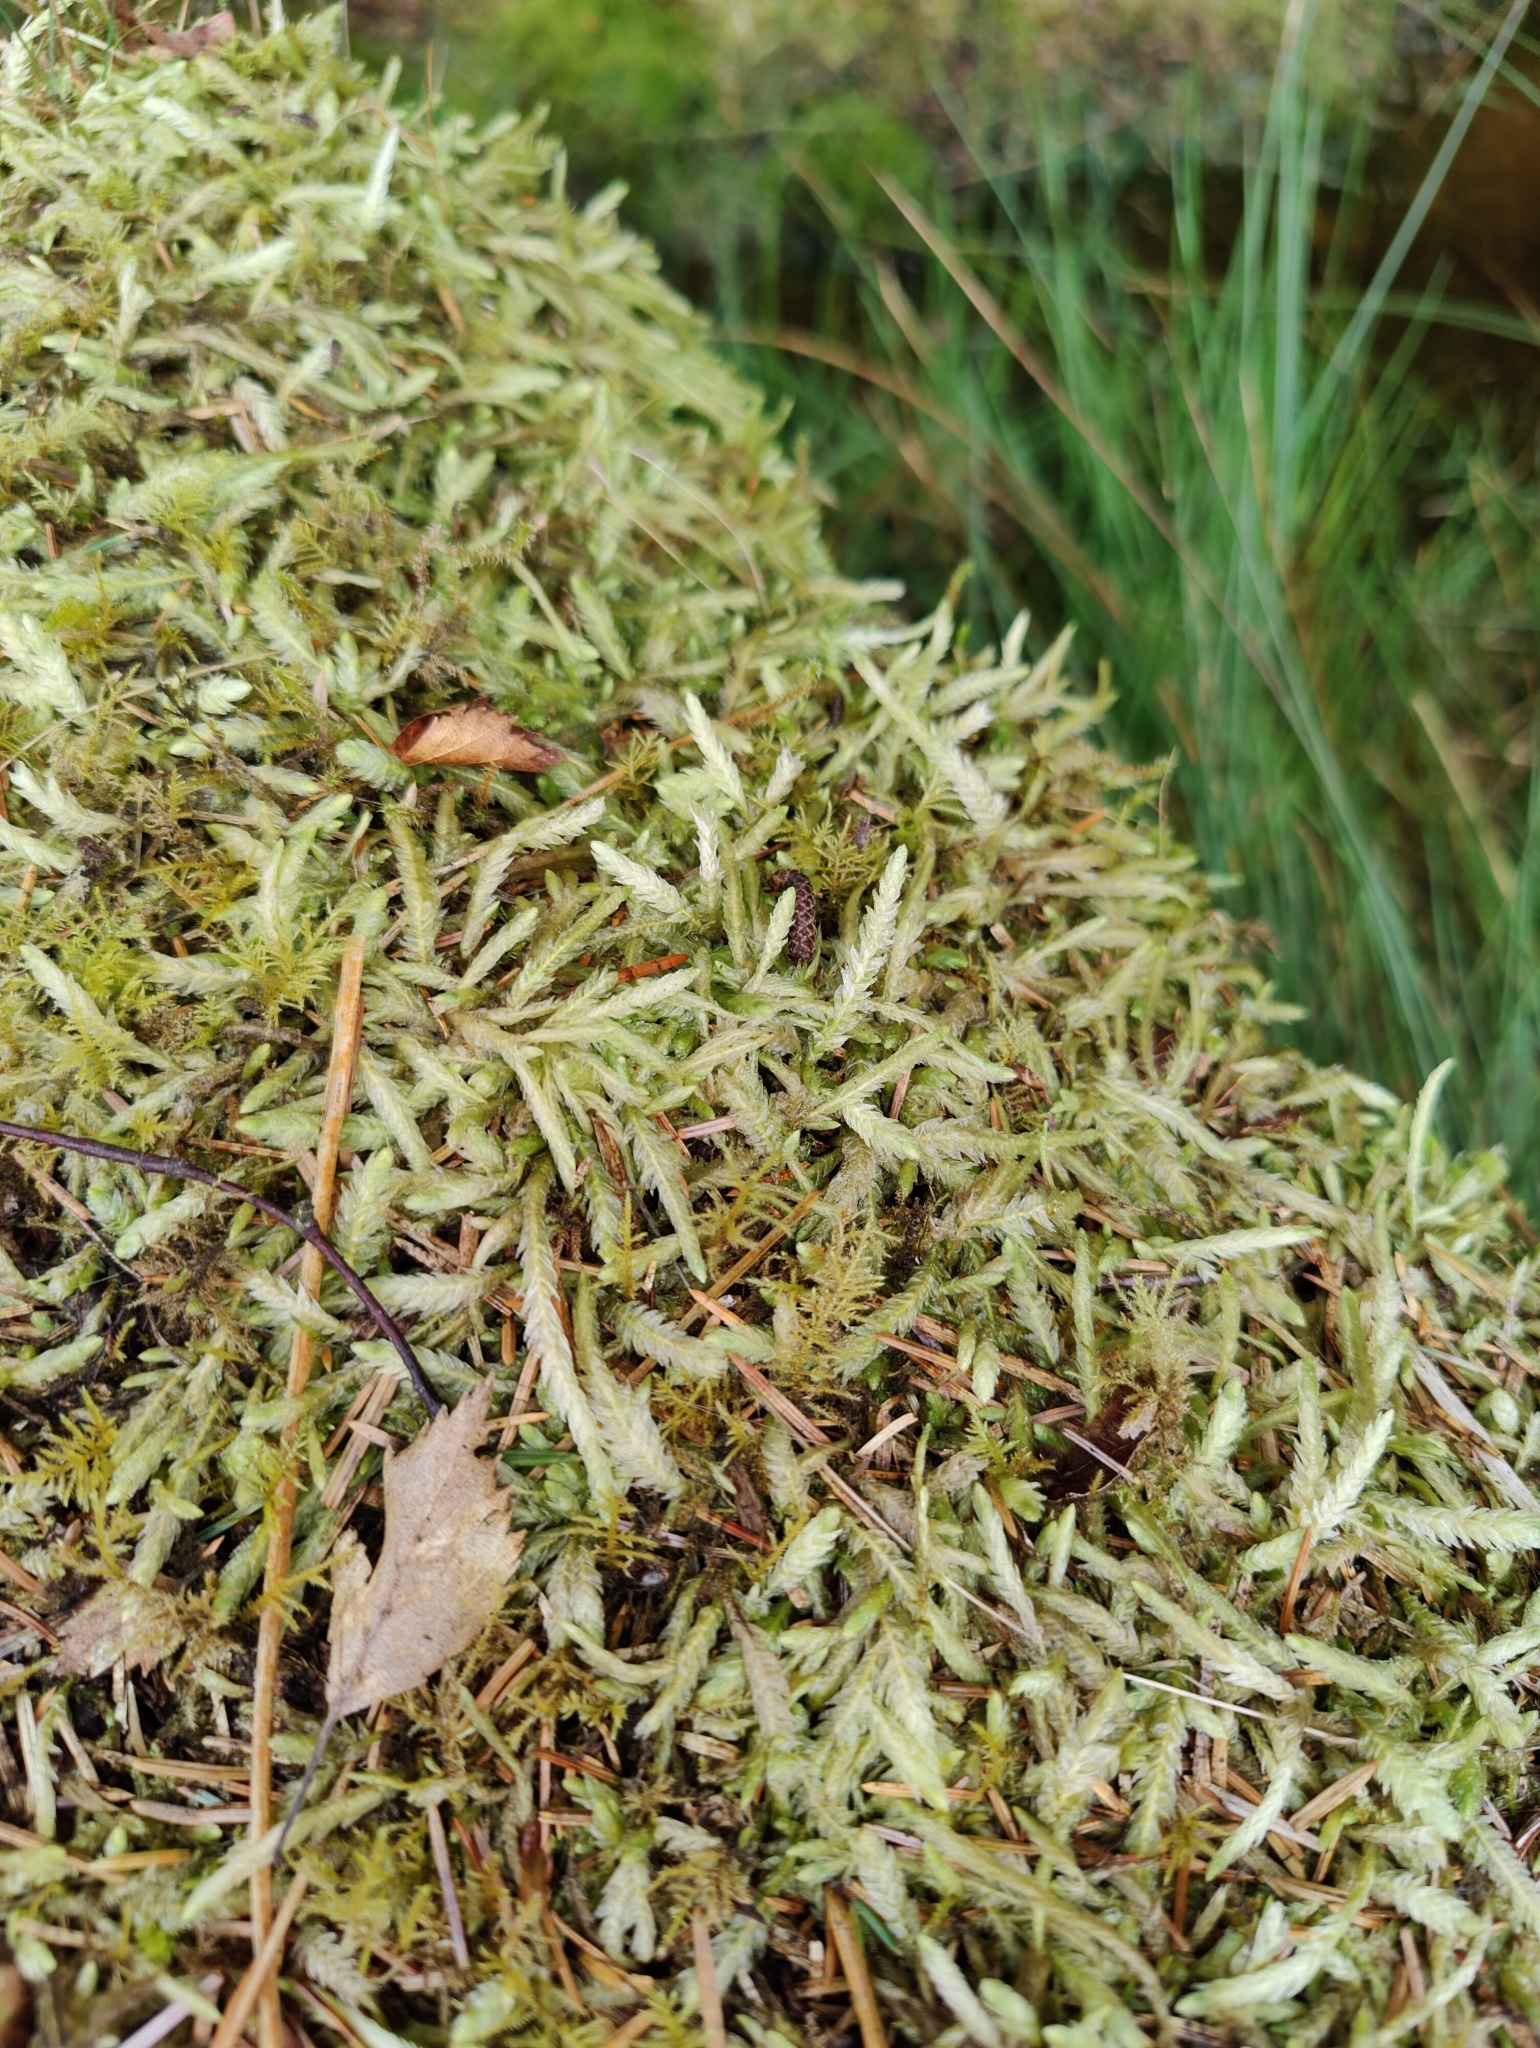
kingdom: Plantae
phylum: Bryophyta
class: Bryopsida
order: Hypnales
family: Plagiotheciaceae
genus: Plagiothecium
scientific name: Plagiothecium undulatum
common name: Waved silk-moss
